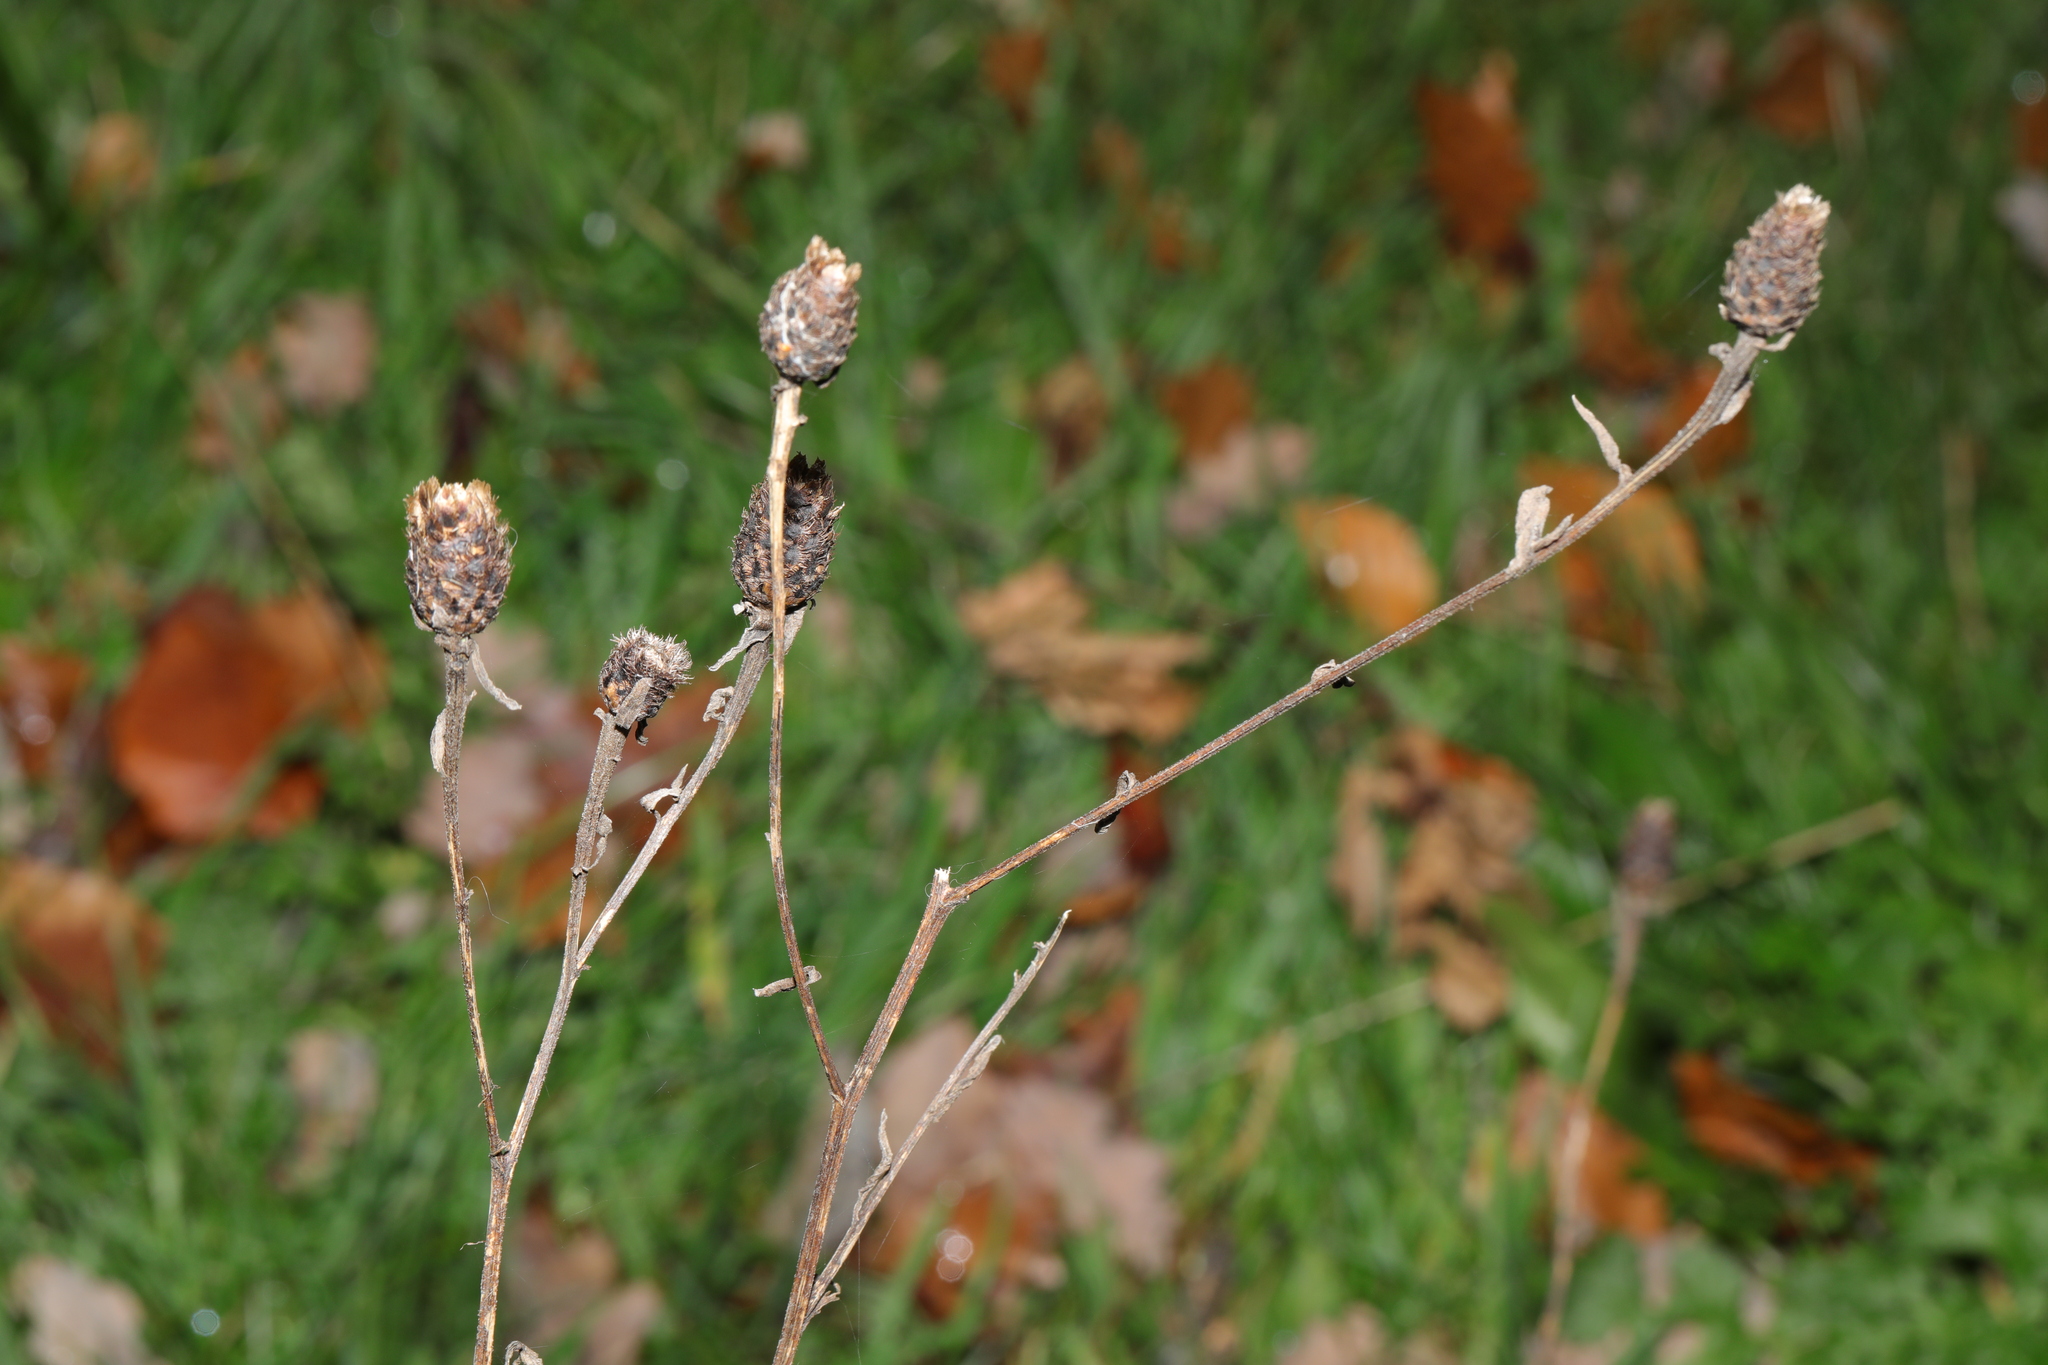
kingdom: Plantae
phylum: Tracheophyta
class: Magnoliopsida
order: Asterales
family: Asteraceae
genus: Centaurea
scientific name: Centaurea nigra
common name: Lesser knapweed
